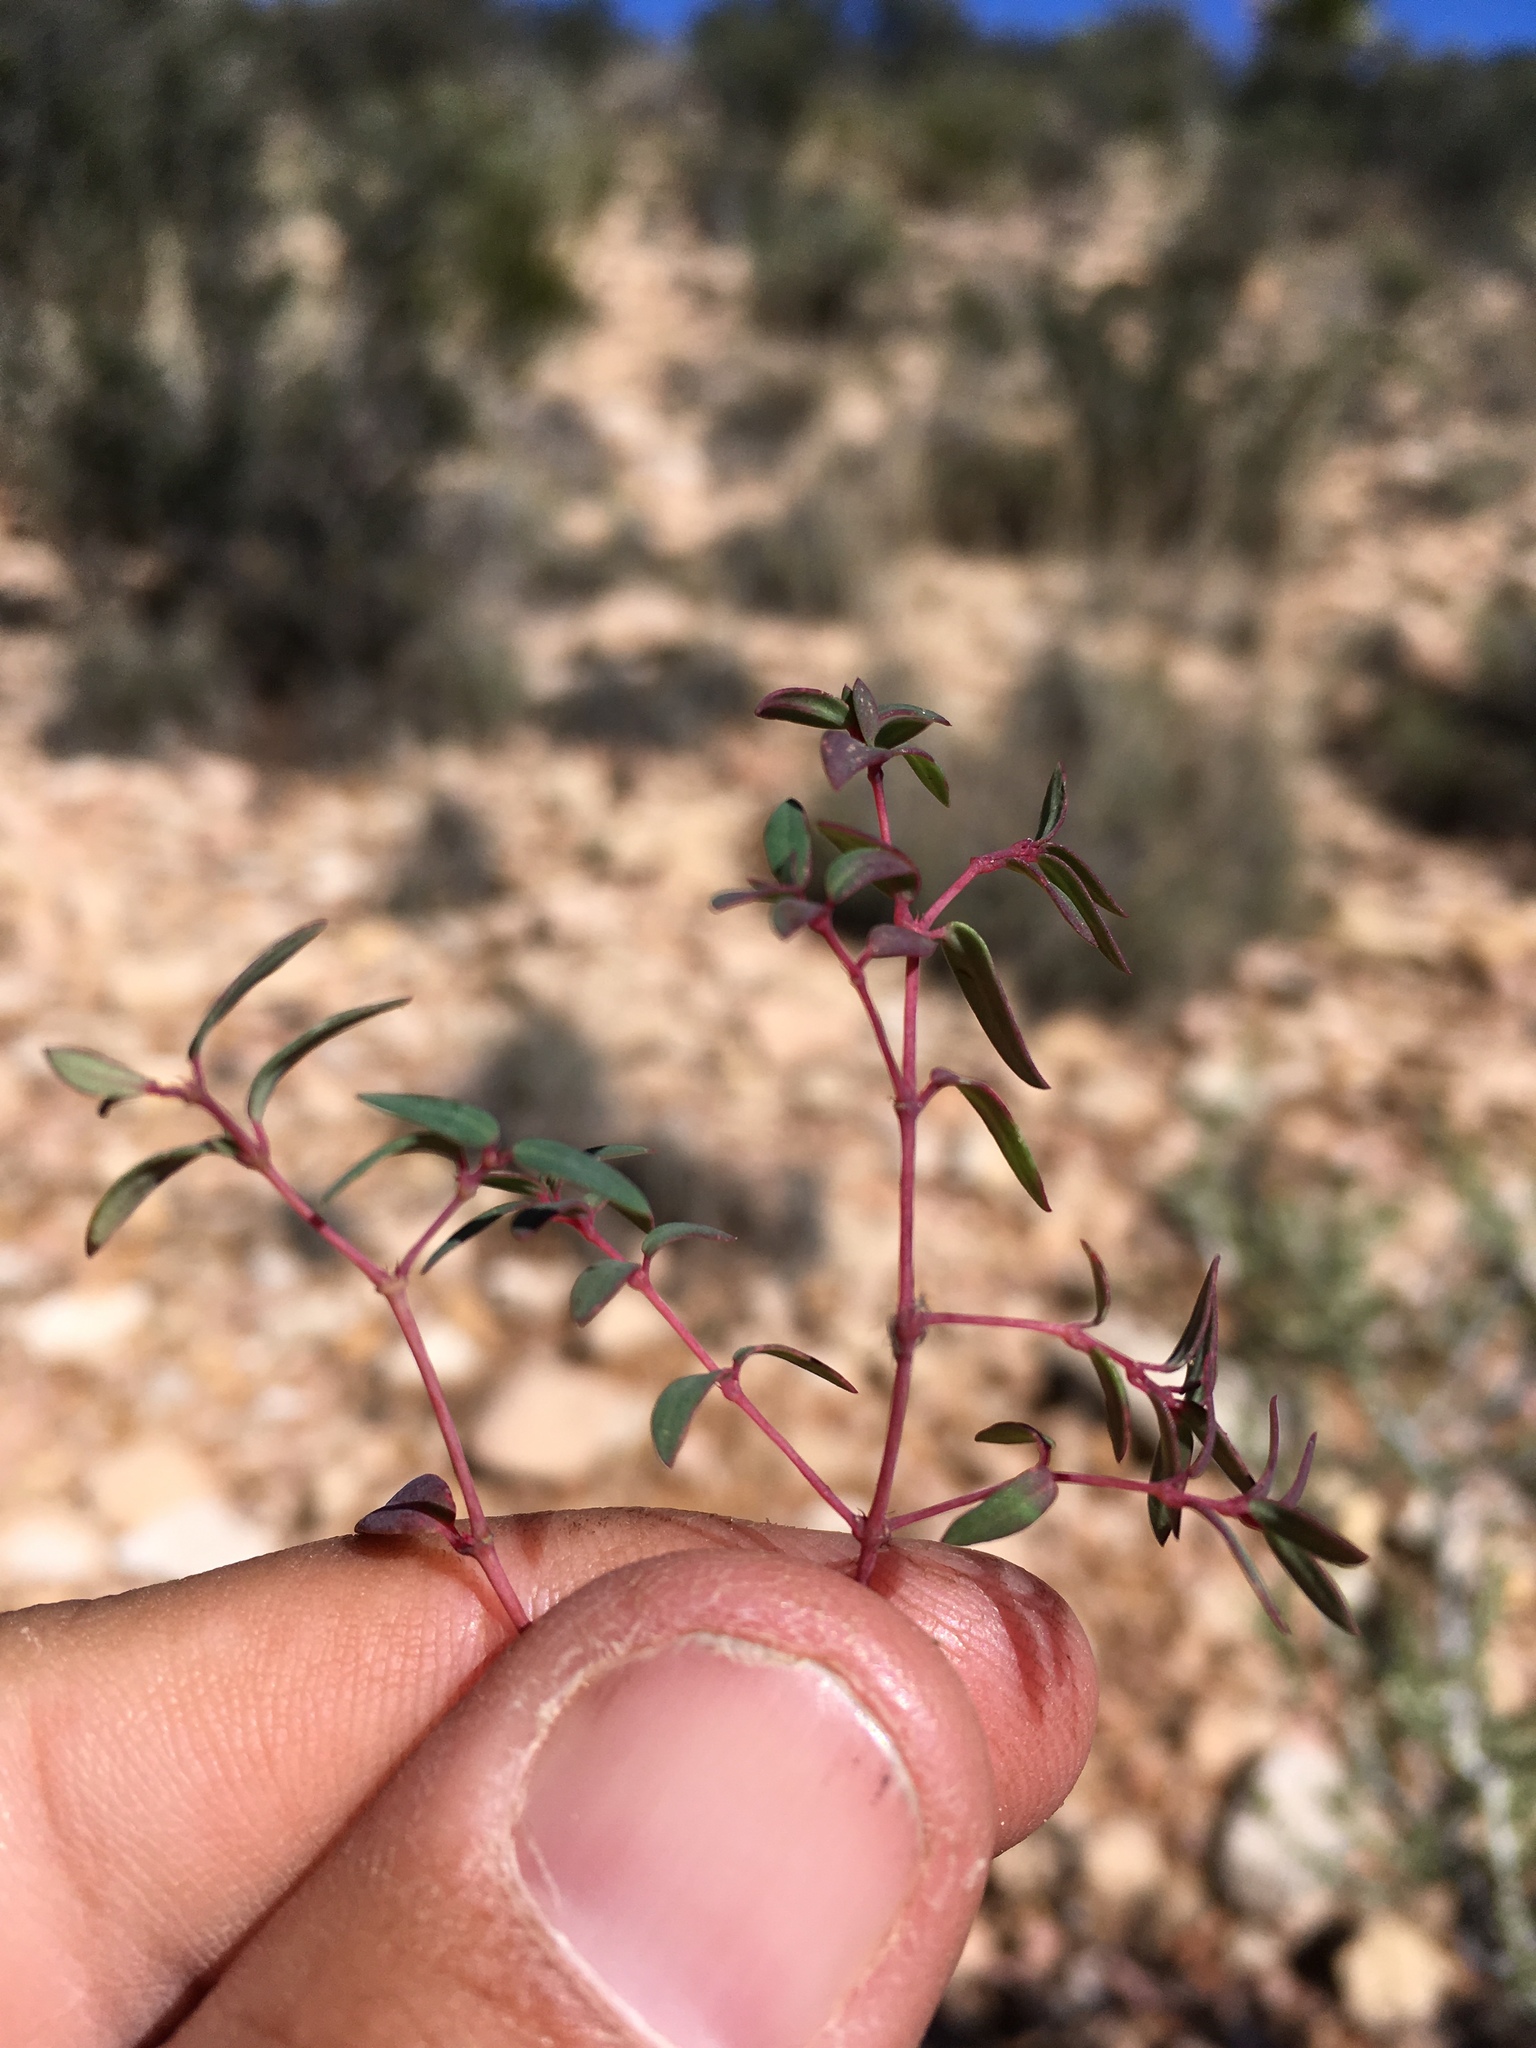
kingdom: Plantae
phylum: Tracheophyta
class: Magnoliopsida
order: Malpighiales
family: Euphorbiaceae
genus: Euphorbia
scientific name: Euphorbia chaetocalyx
